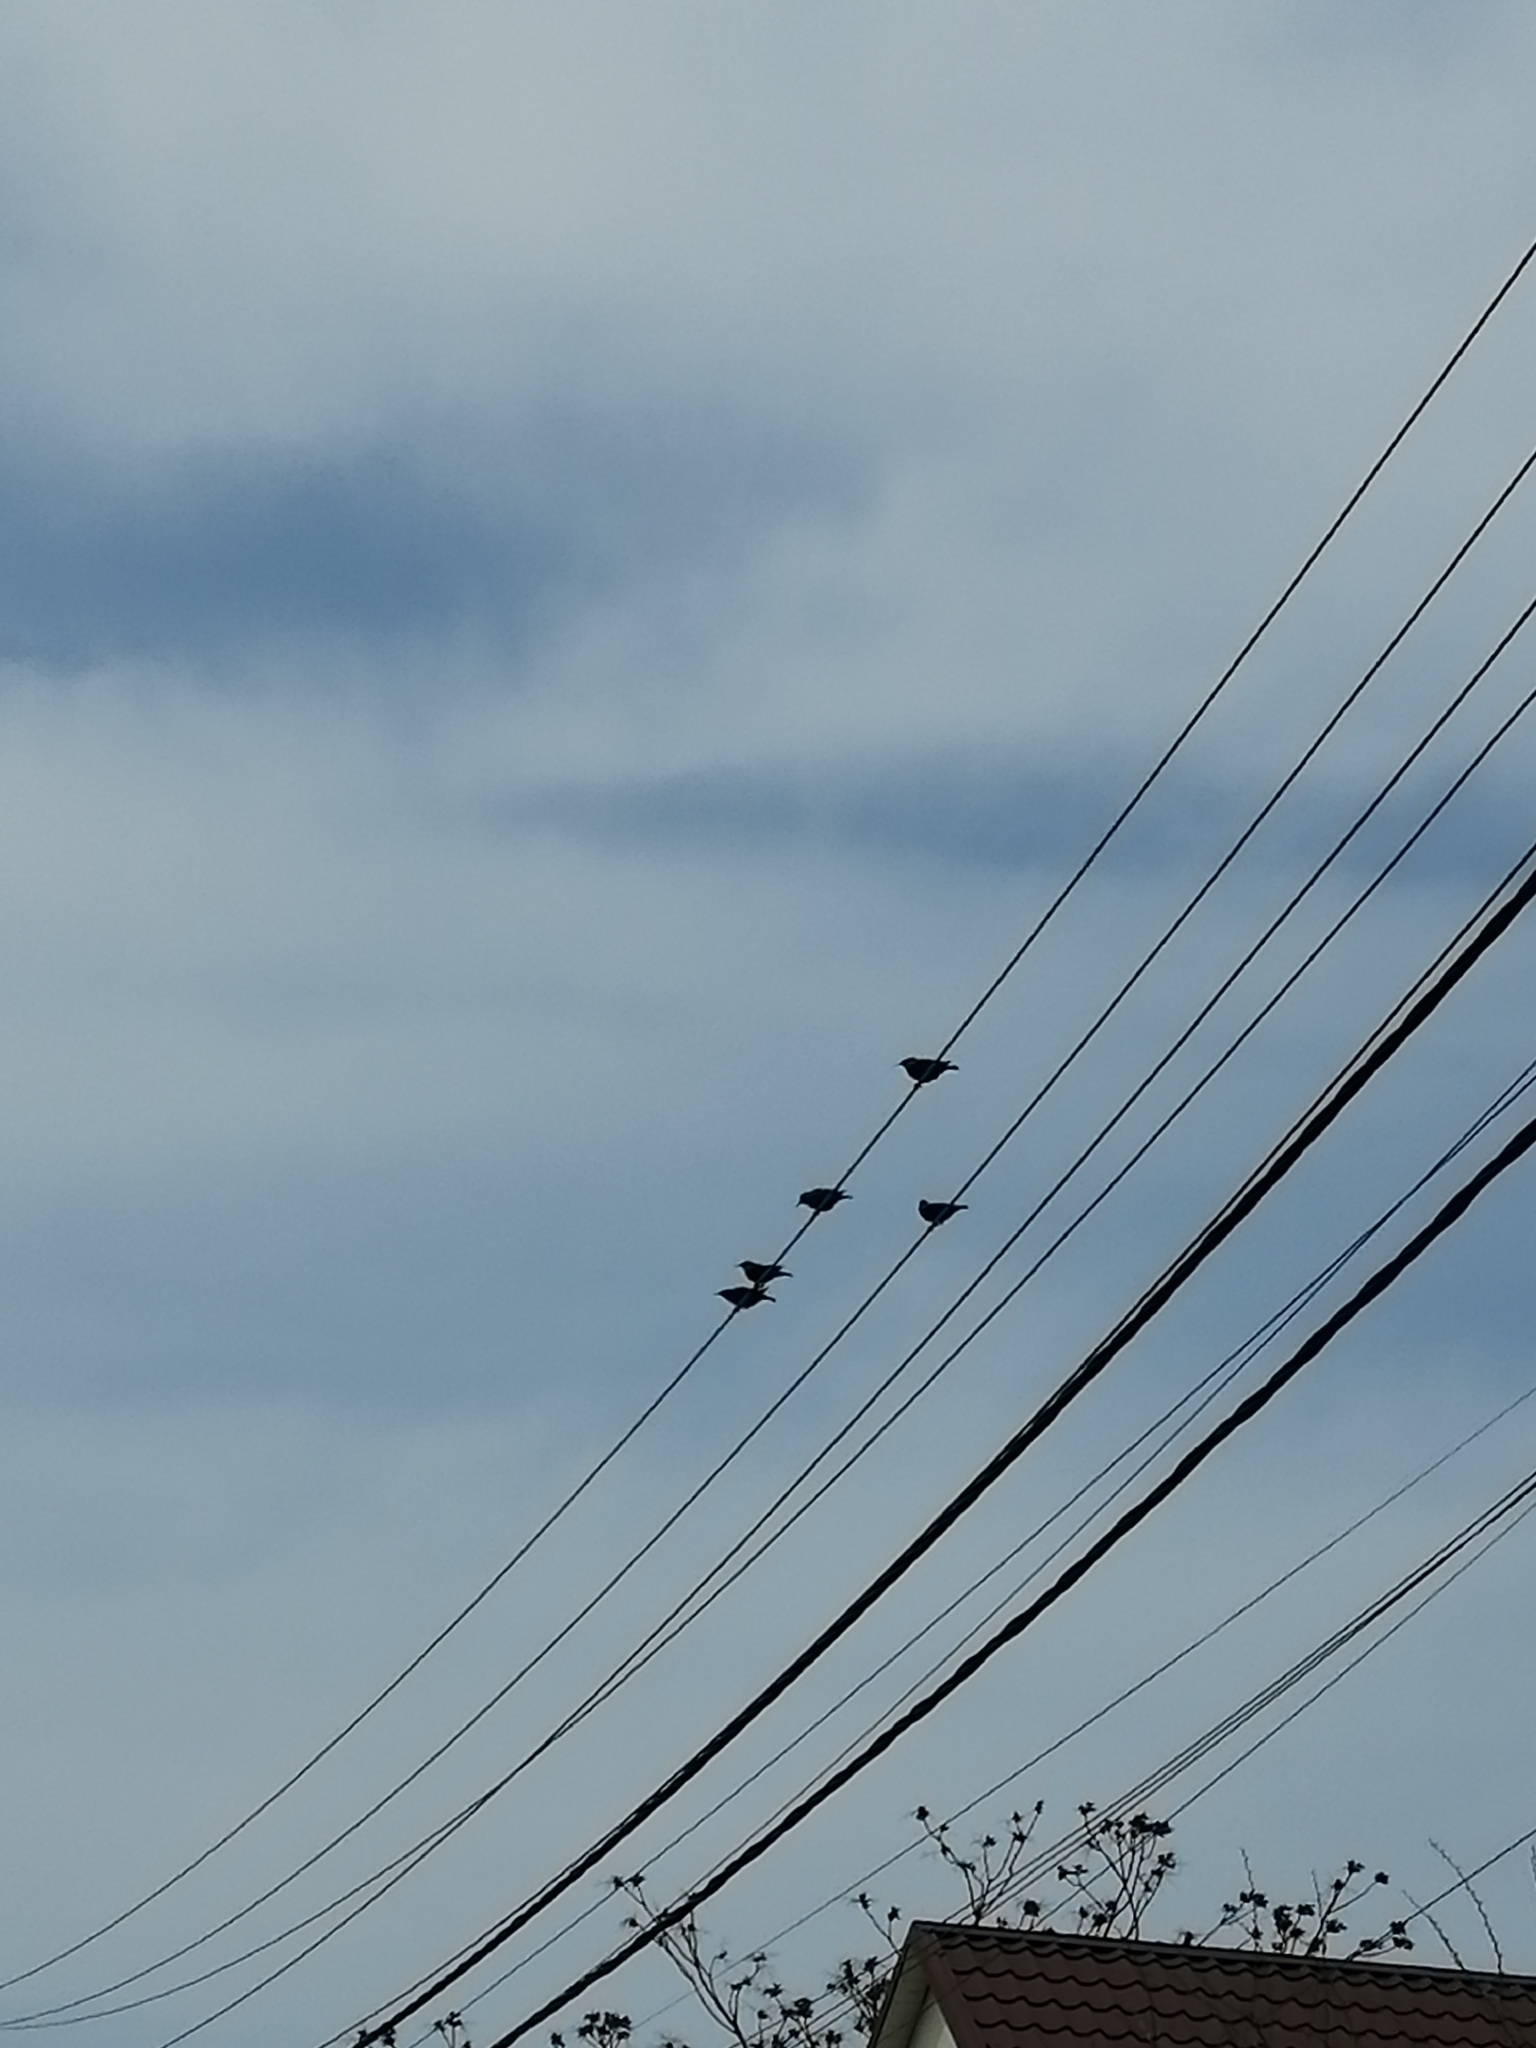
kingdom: Animalia
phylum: Chordata
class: Aves
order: Passeriformes
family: Sturnidae
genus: Sturnus
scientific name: Sturnus vulgaris
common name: Common starling
